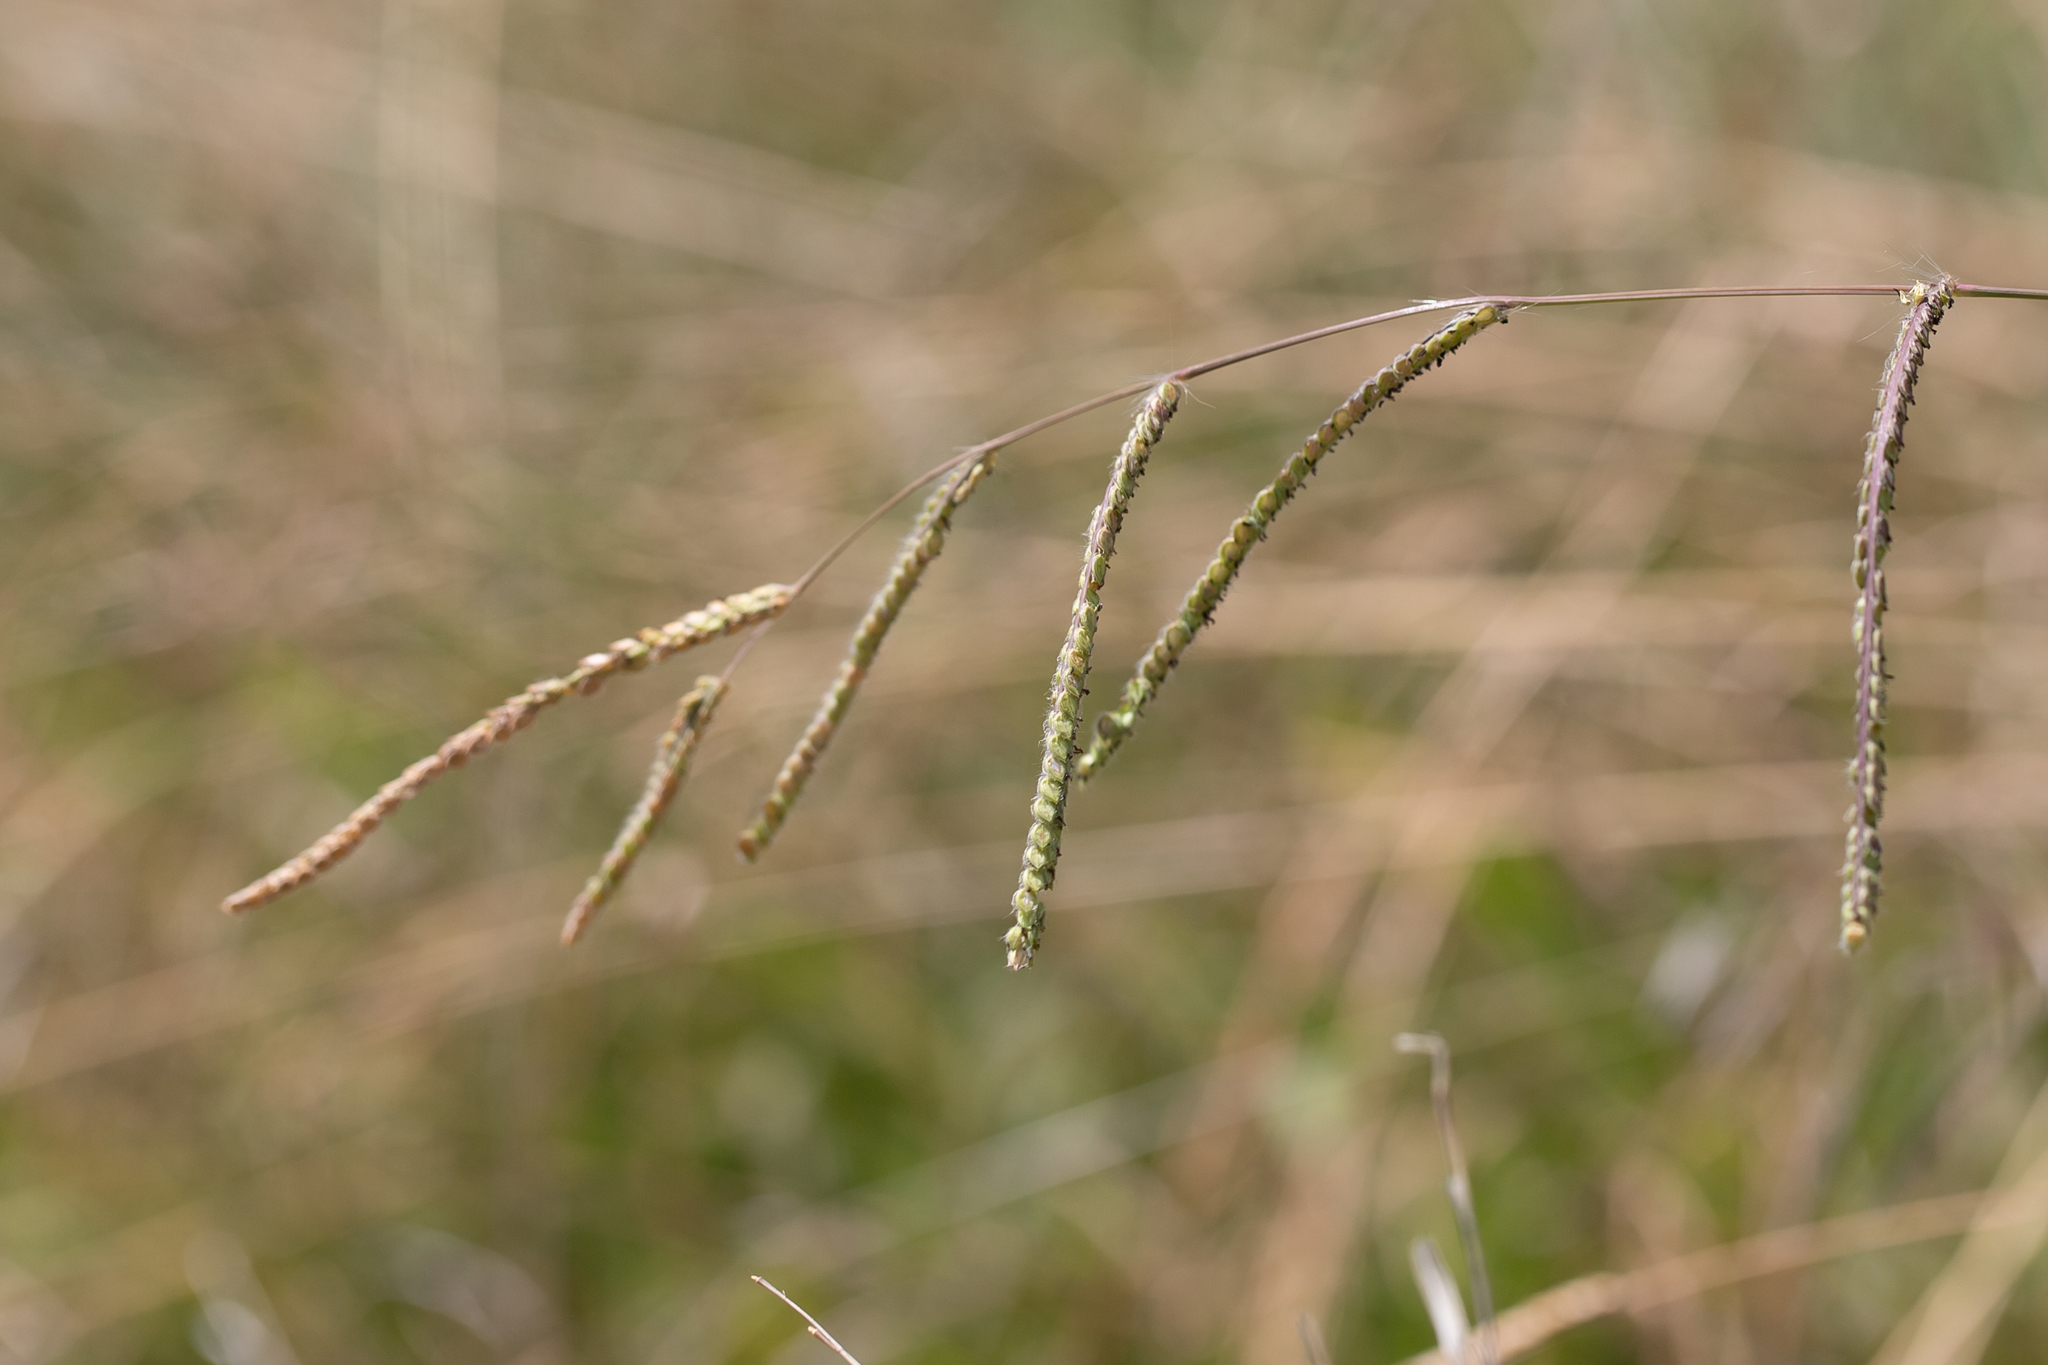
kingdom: Plantae
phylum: Tracheophyta
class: Liliopsida
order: Poales
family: Poaceae
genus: Paspalum
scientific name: Paspalum dilatatum
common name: Dallisgrass
